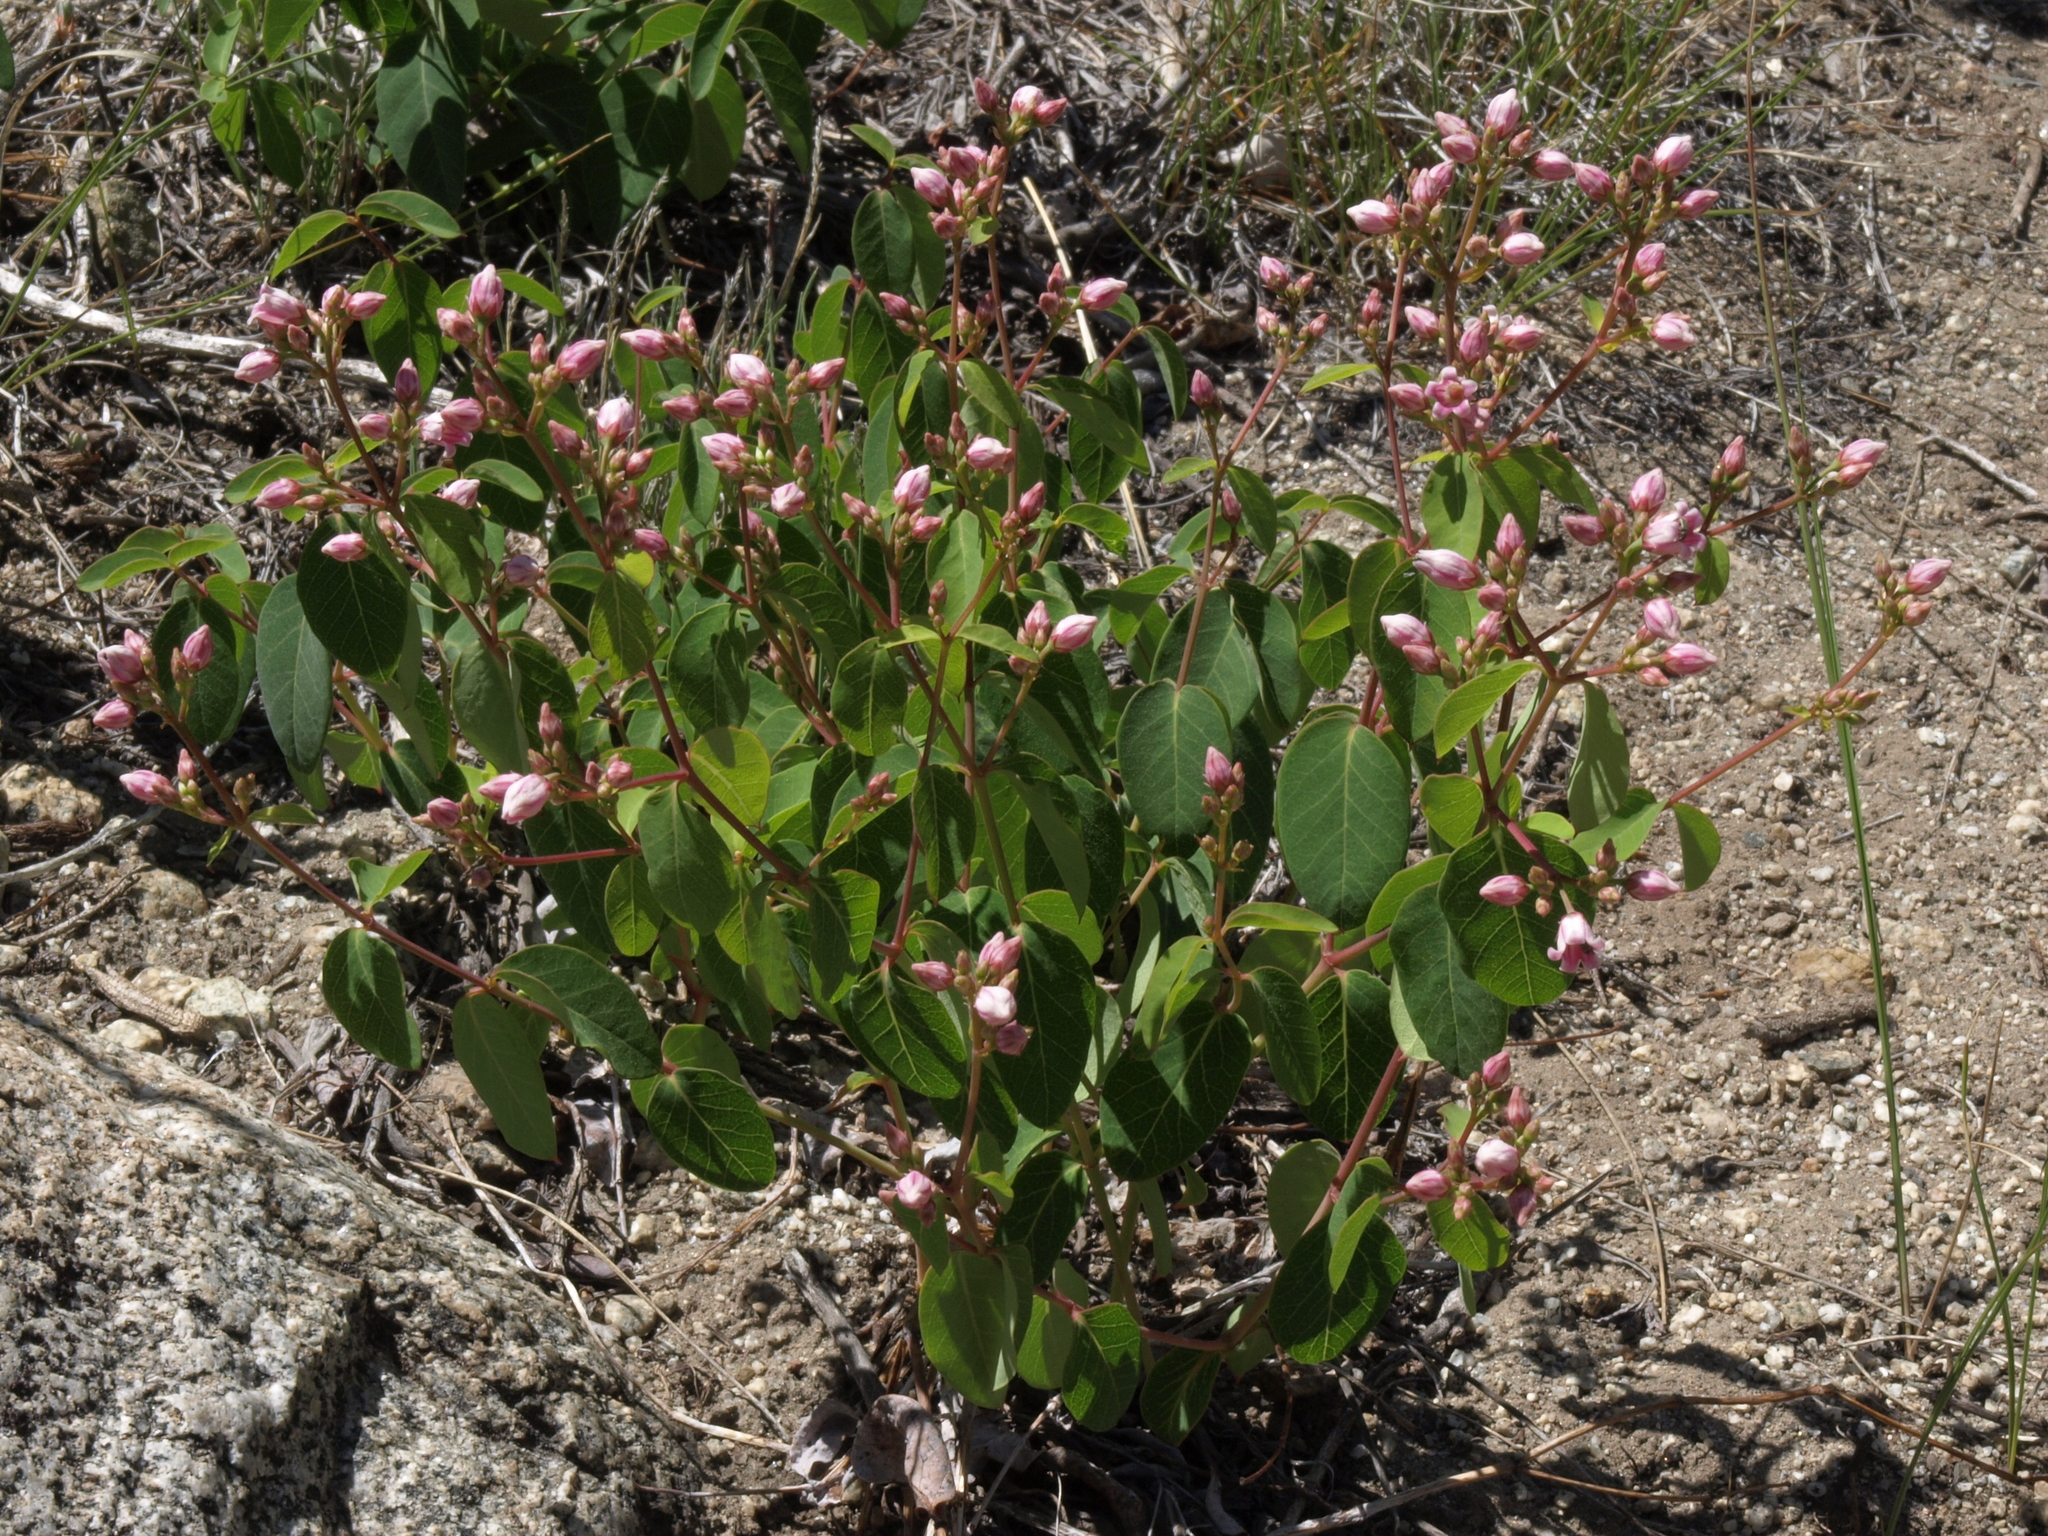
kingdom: Plantae
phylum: Tracheophyta
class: Magnoliopsida
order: Gentianales
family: Apocynaceae
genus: Apocynum
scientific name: Apocynum androsaemifolium
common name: Spreading dogbane
